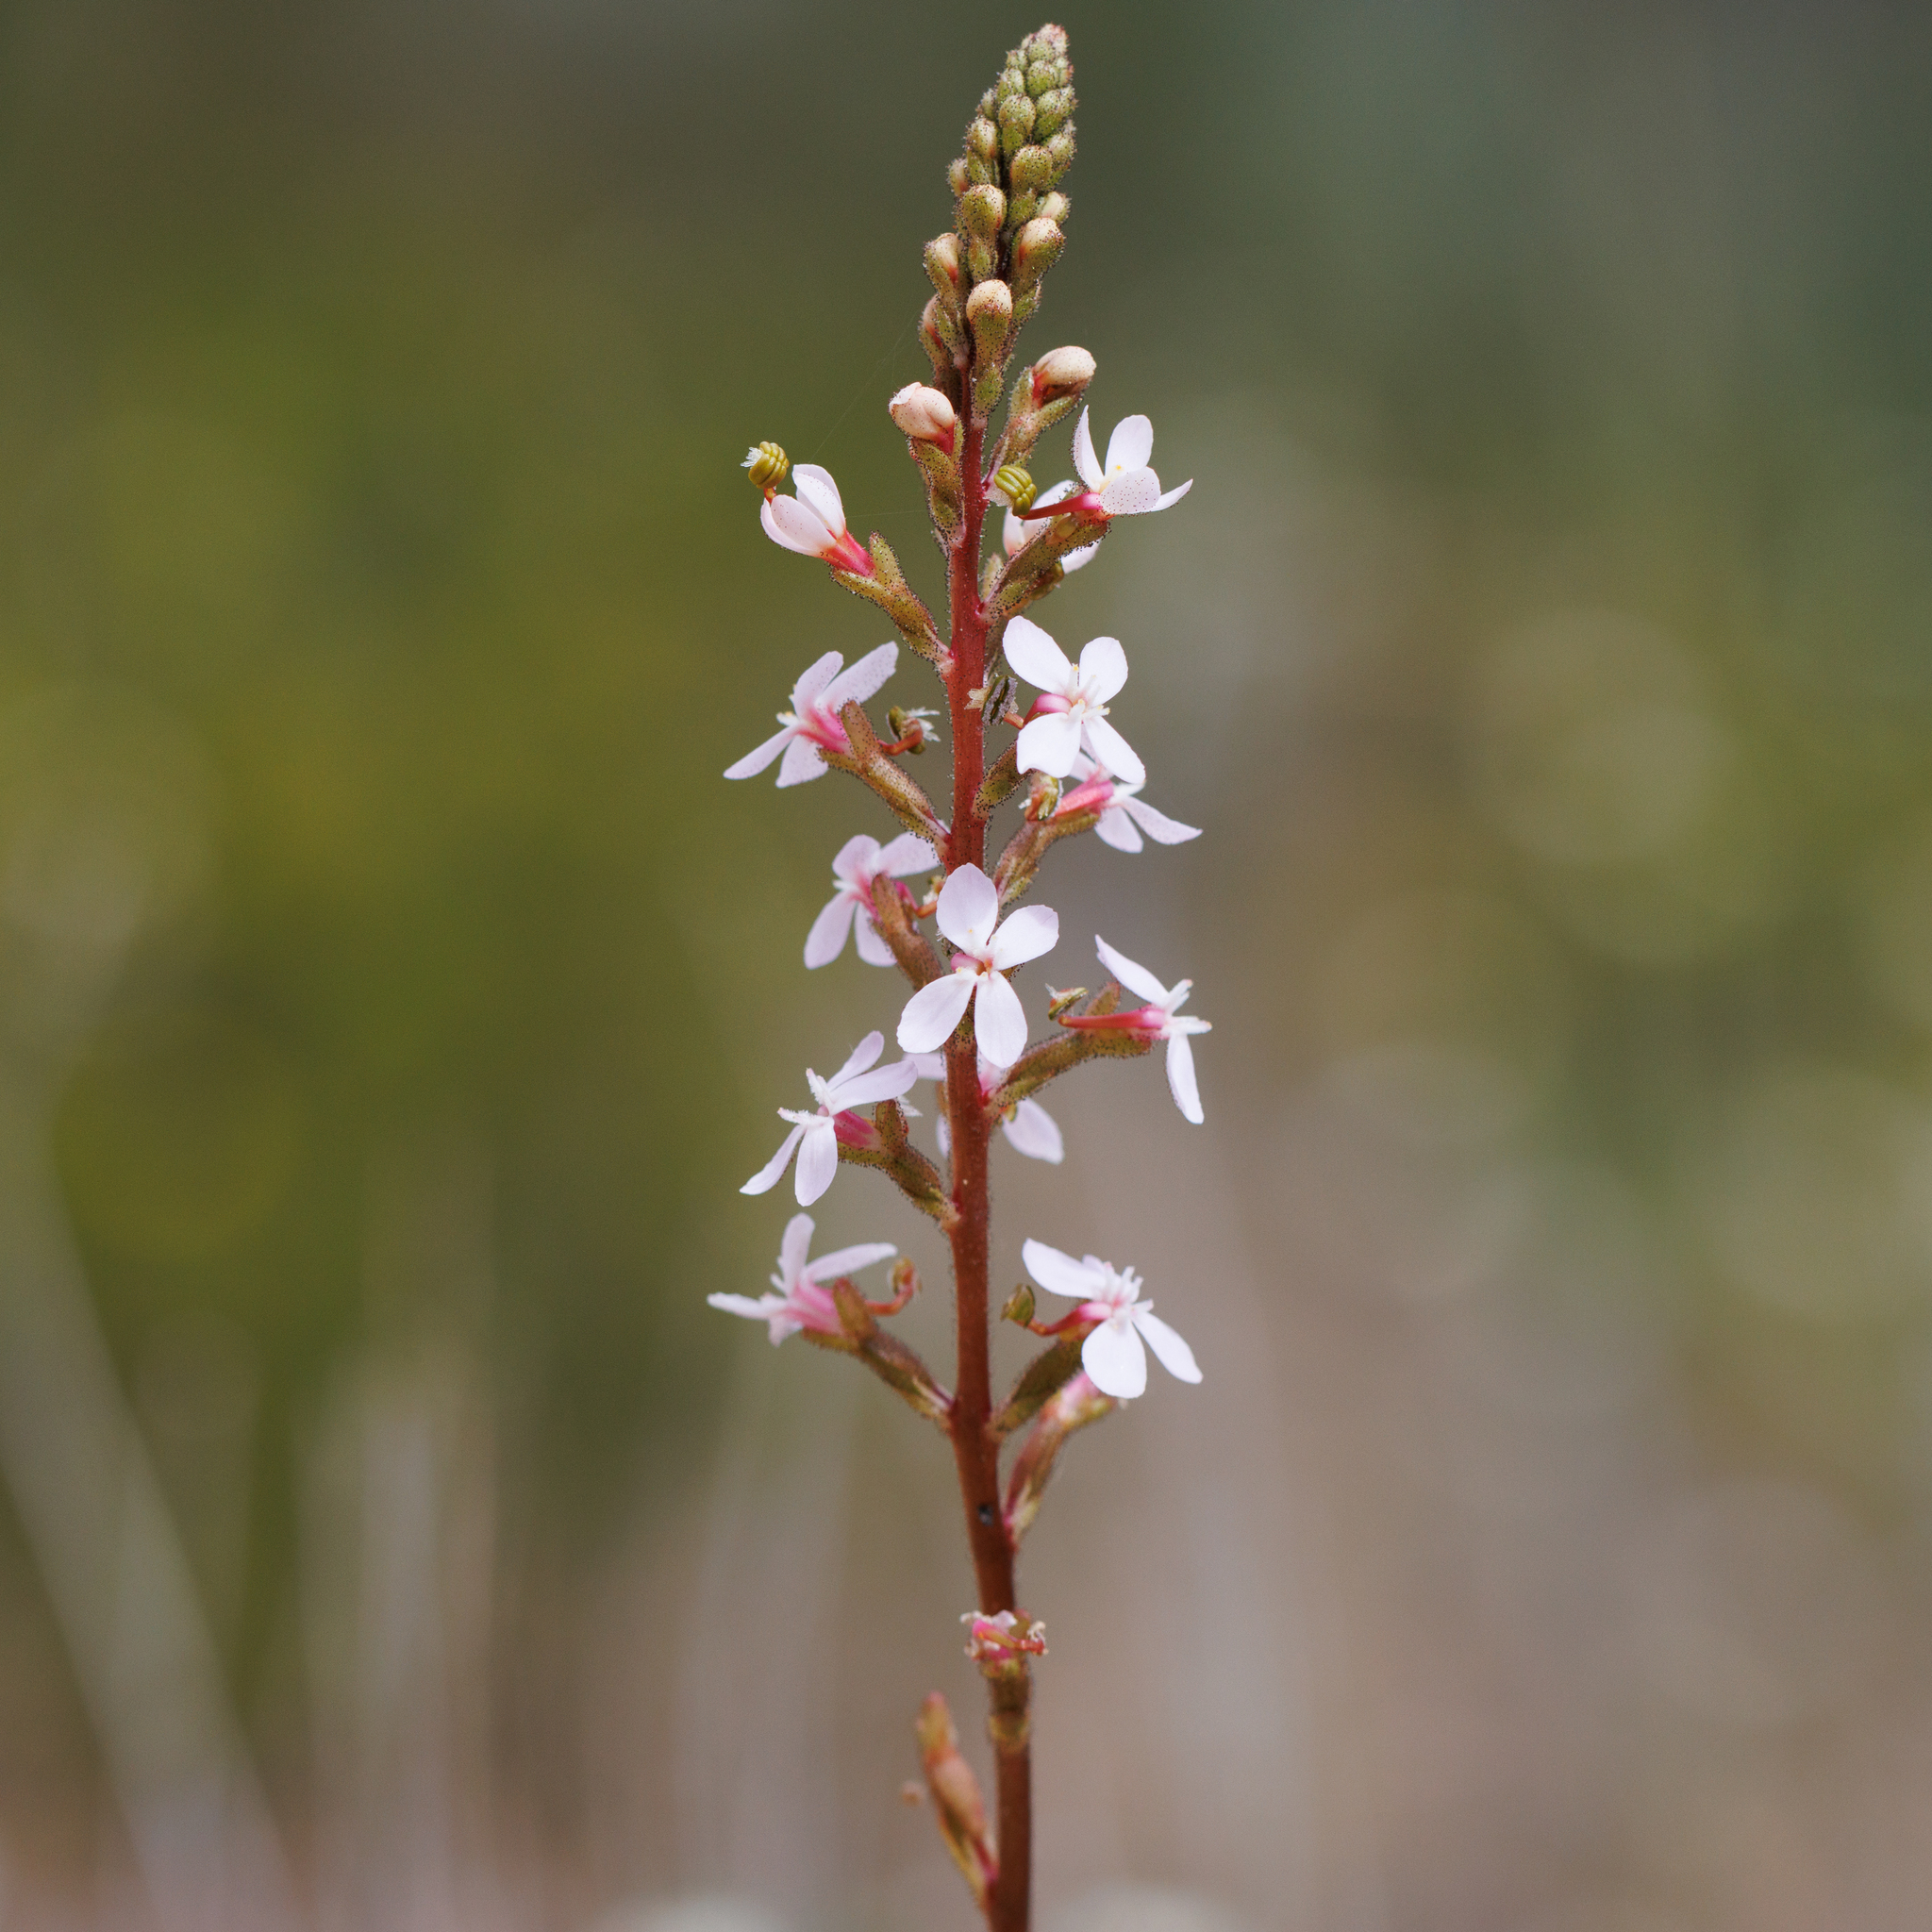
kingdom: Plantae
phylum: Tracheophyta
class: Magnoliopsida
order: Asterales
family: Stylidiaceae
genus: Stylidium
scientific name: Stylidium armeria
